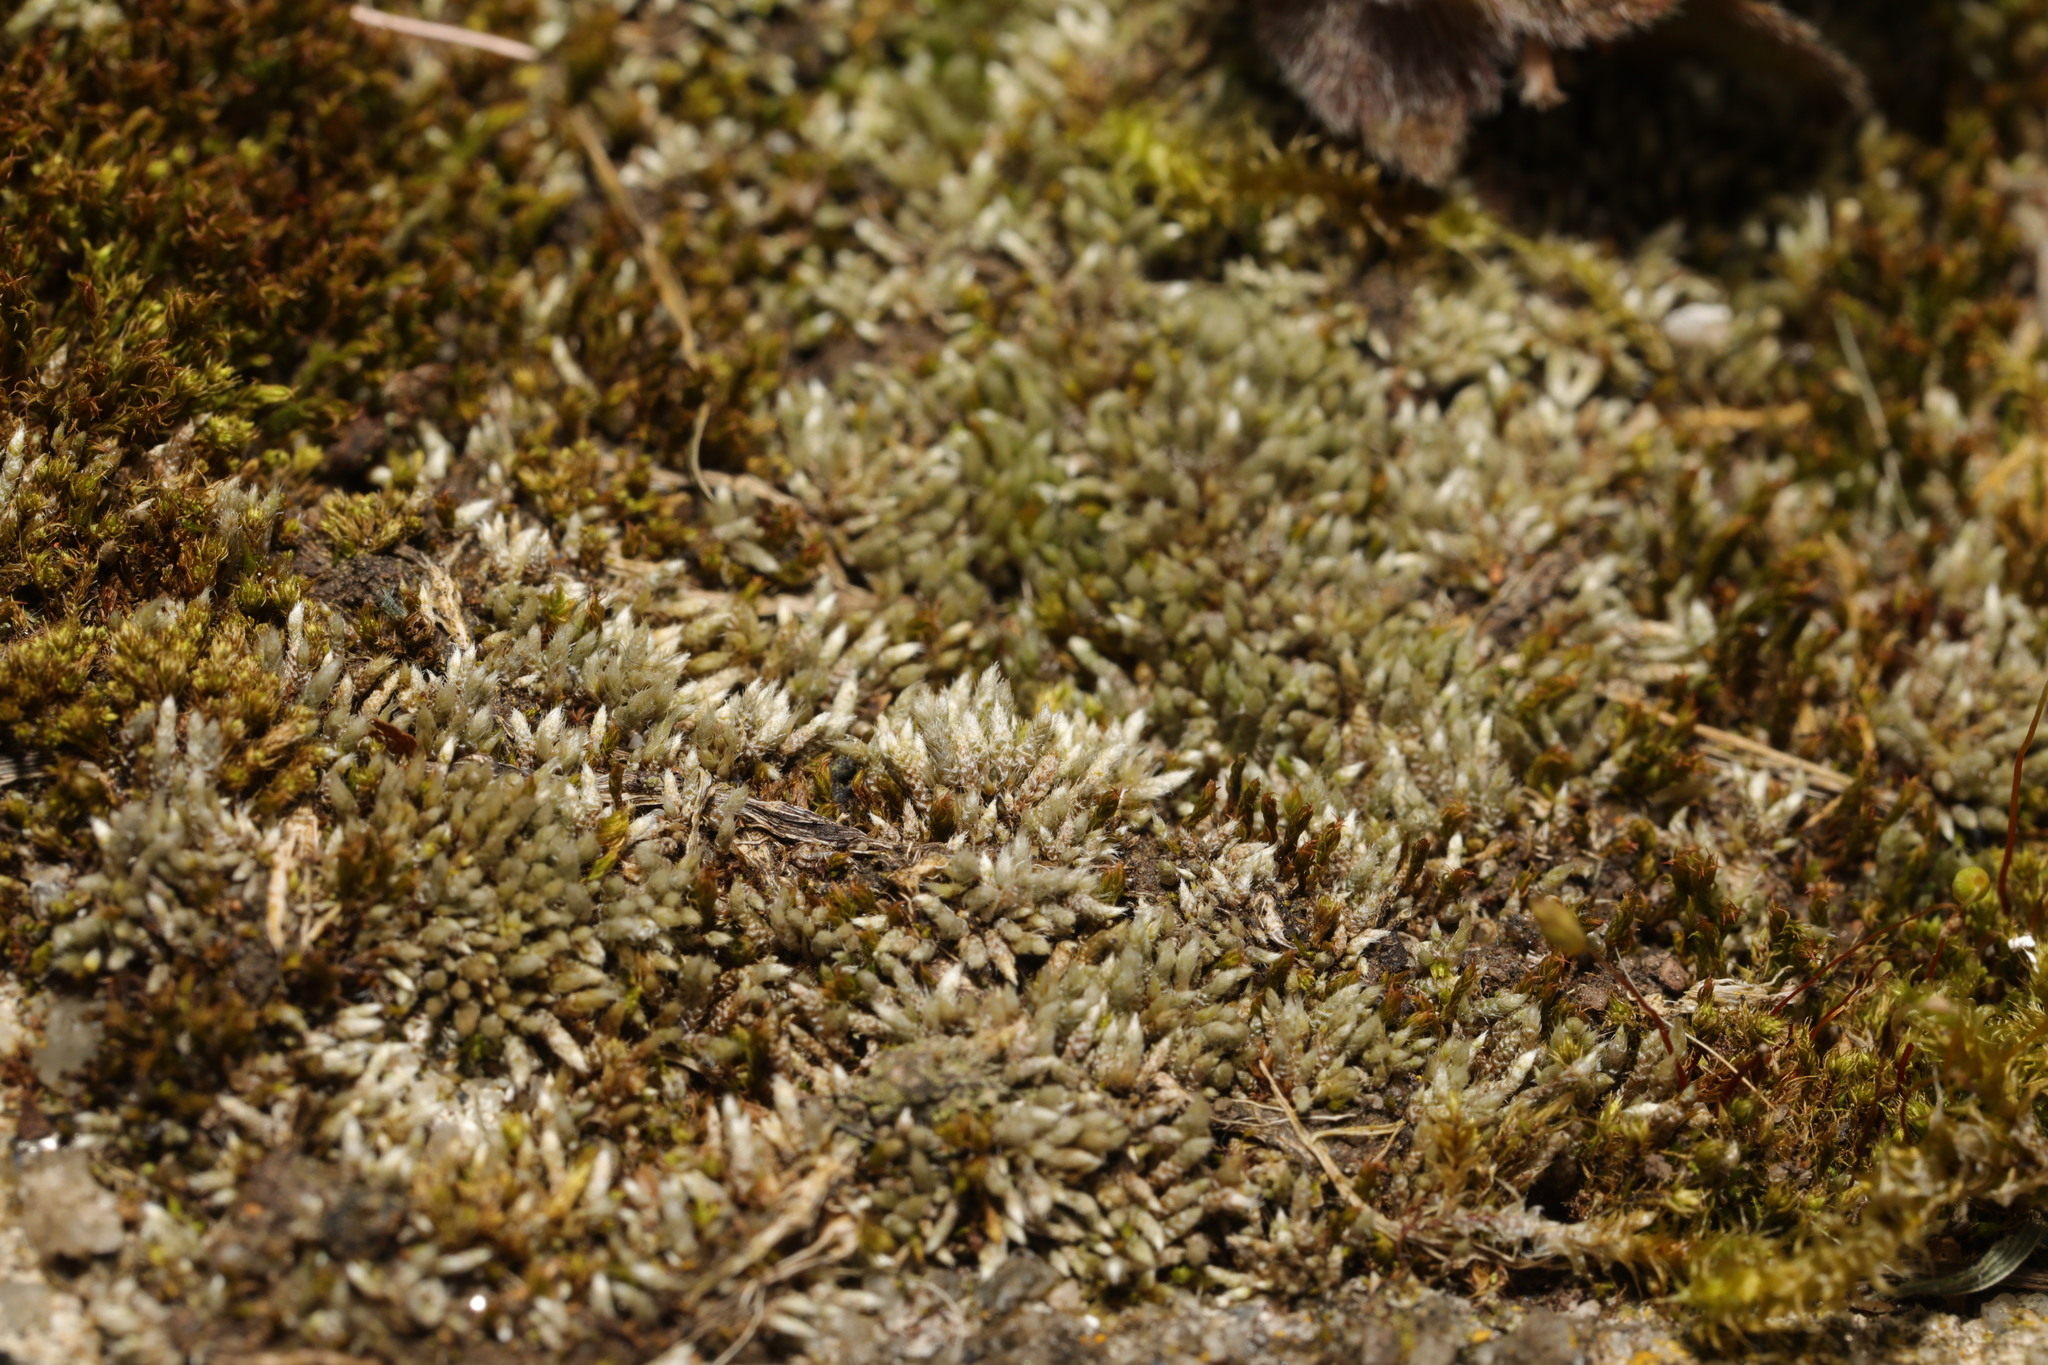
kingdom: Plantae
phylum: Bryophyta
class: Bryopsida
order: Bryales
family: Bryaceae
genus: Bryum
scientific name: Bryum argenteum
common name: Silver-moss
